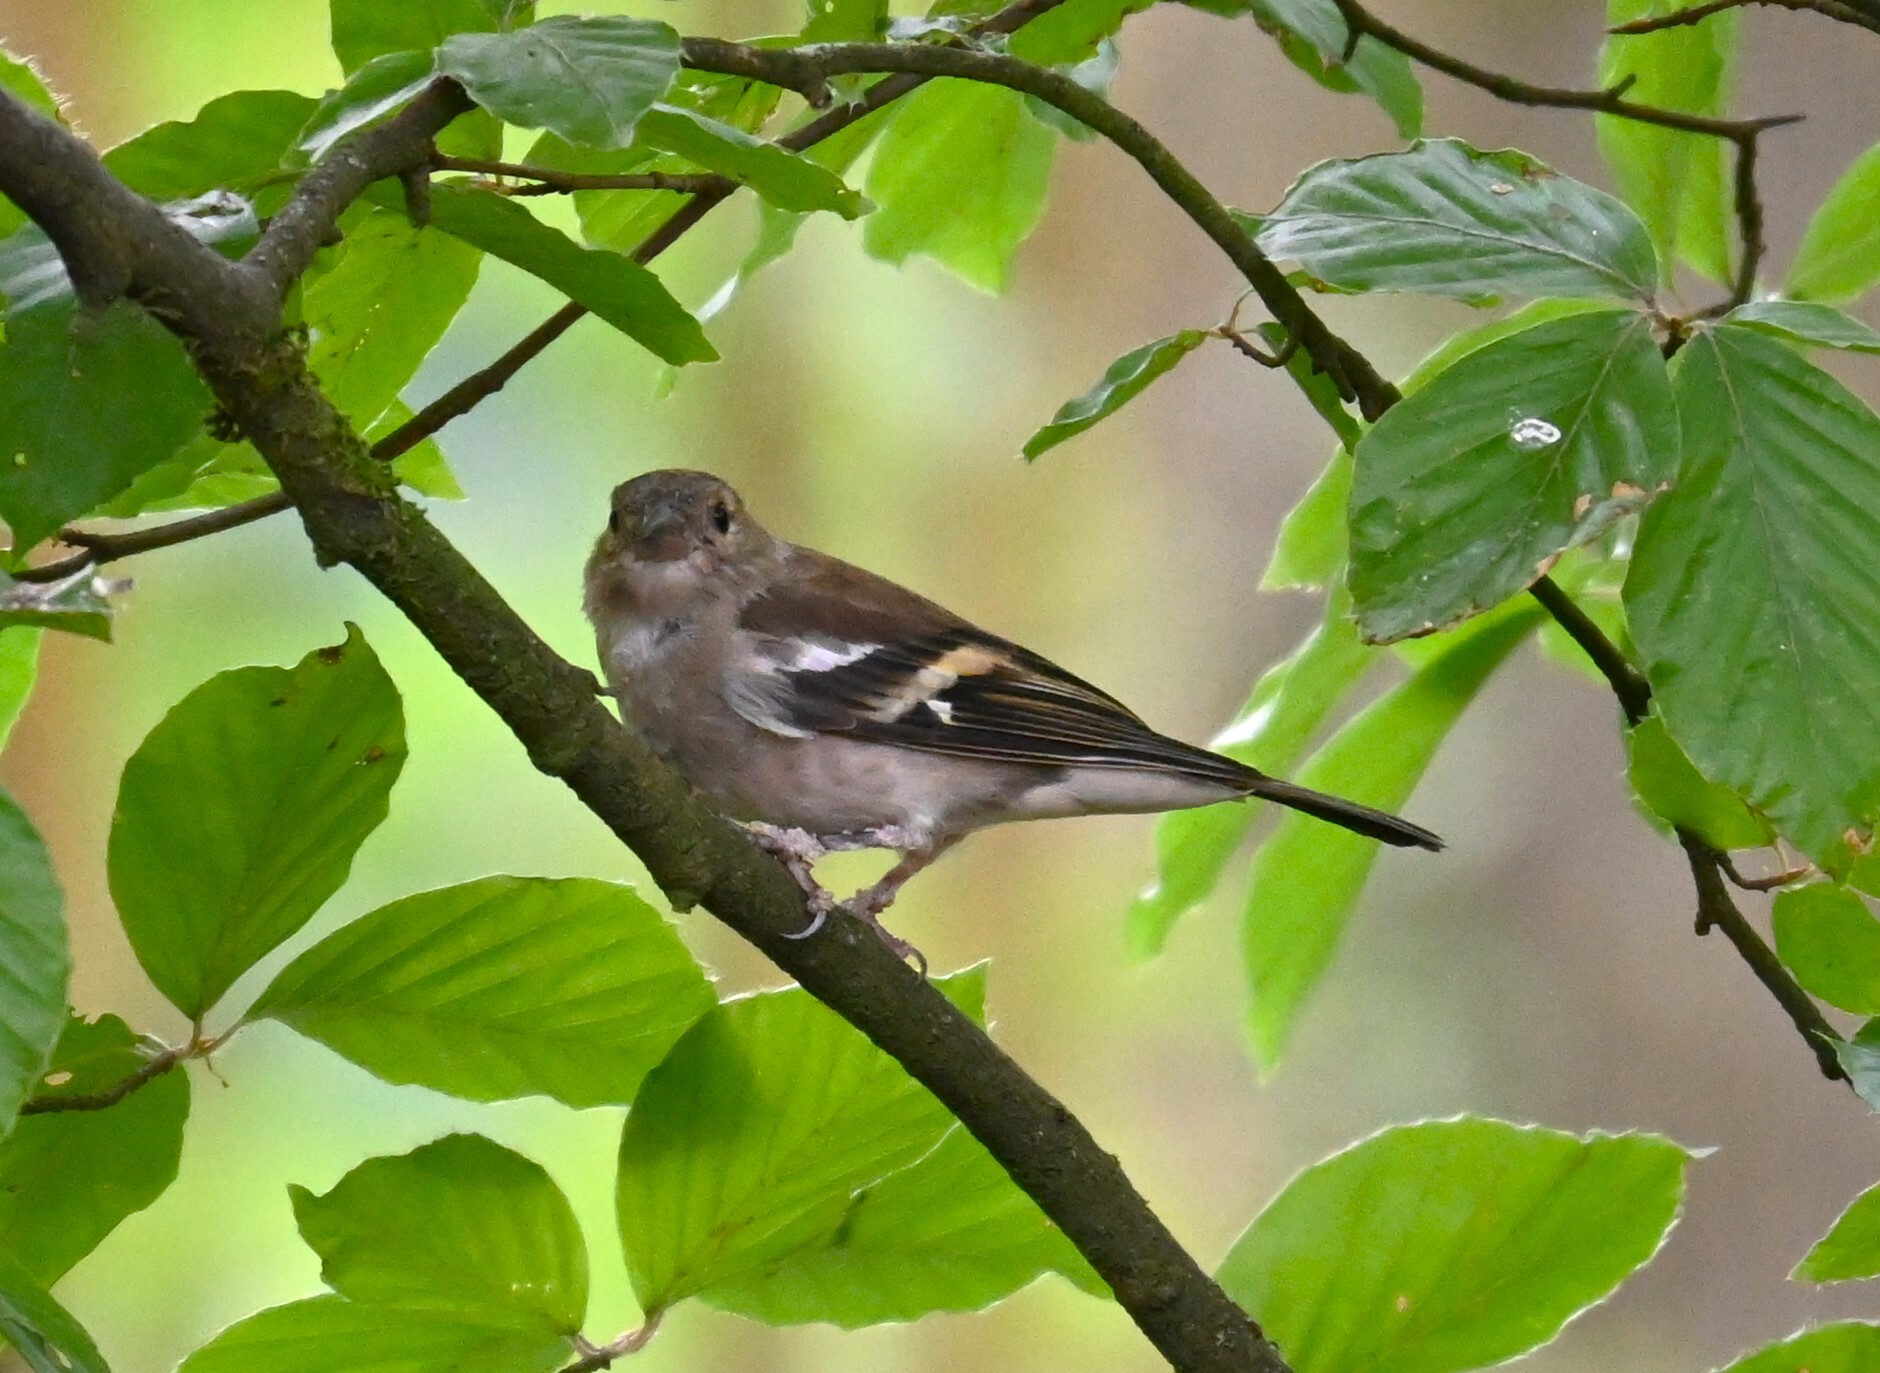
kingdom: Animalia
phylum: Chordata
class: Aves
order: Passeriformes
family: Fringillidae
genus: Fringilla
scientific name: Fringilla coelebs
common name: Common chaffinch
